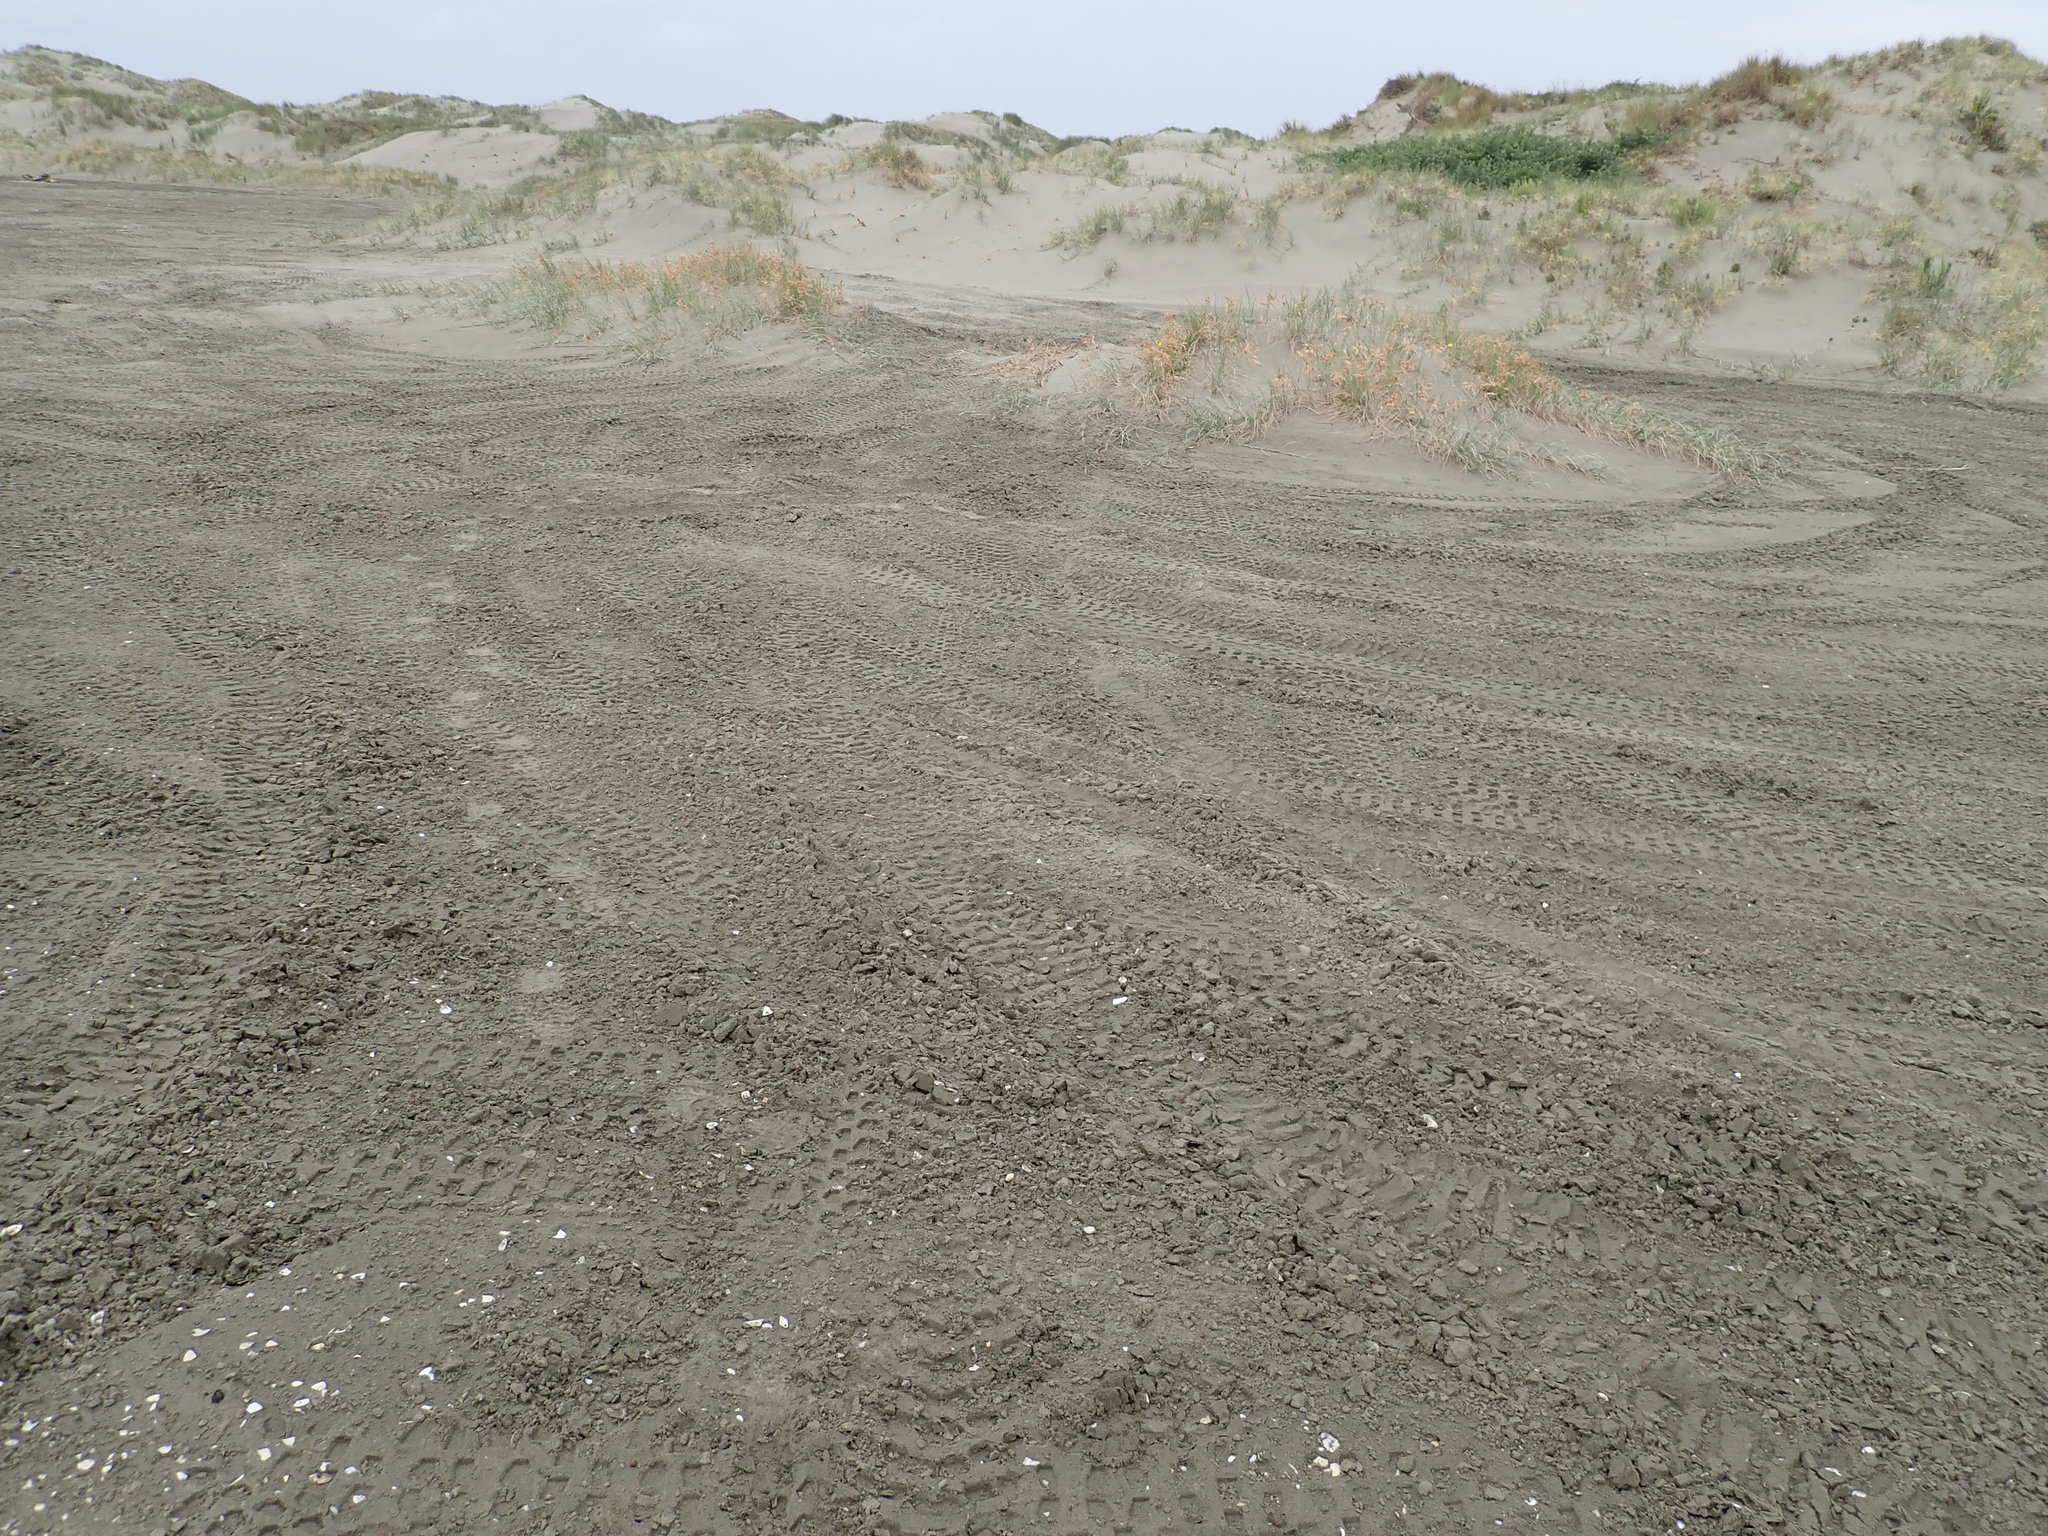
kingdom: Plantae
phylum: Tracheophyta
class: Liliopsida
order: Poales
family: Poaceae
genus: Spinifex
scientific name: Spinifex sericeus
